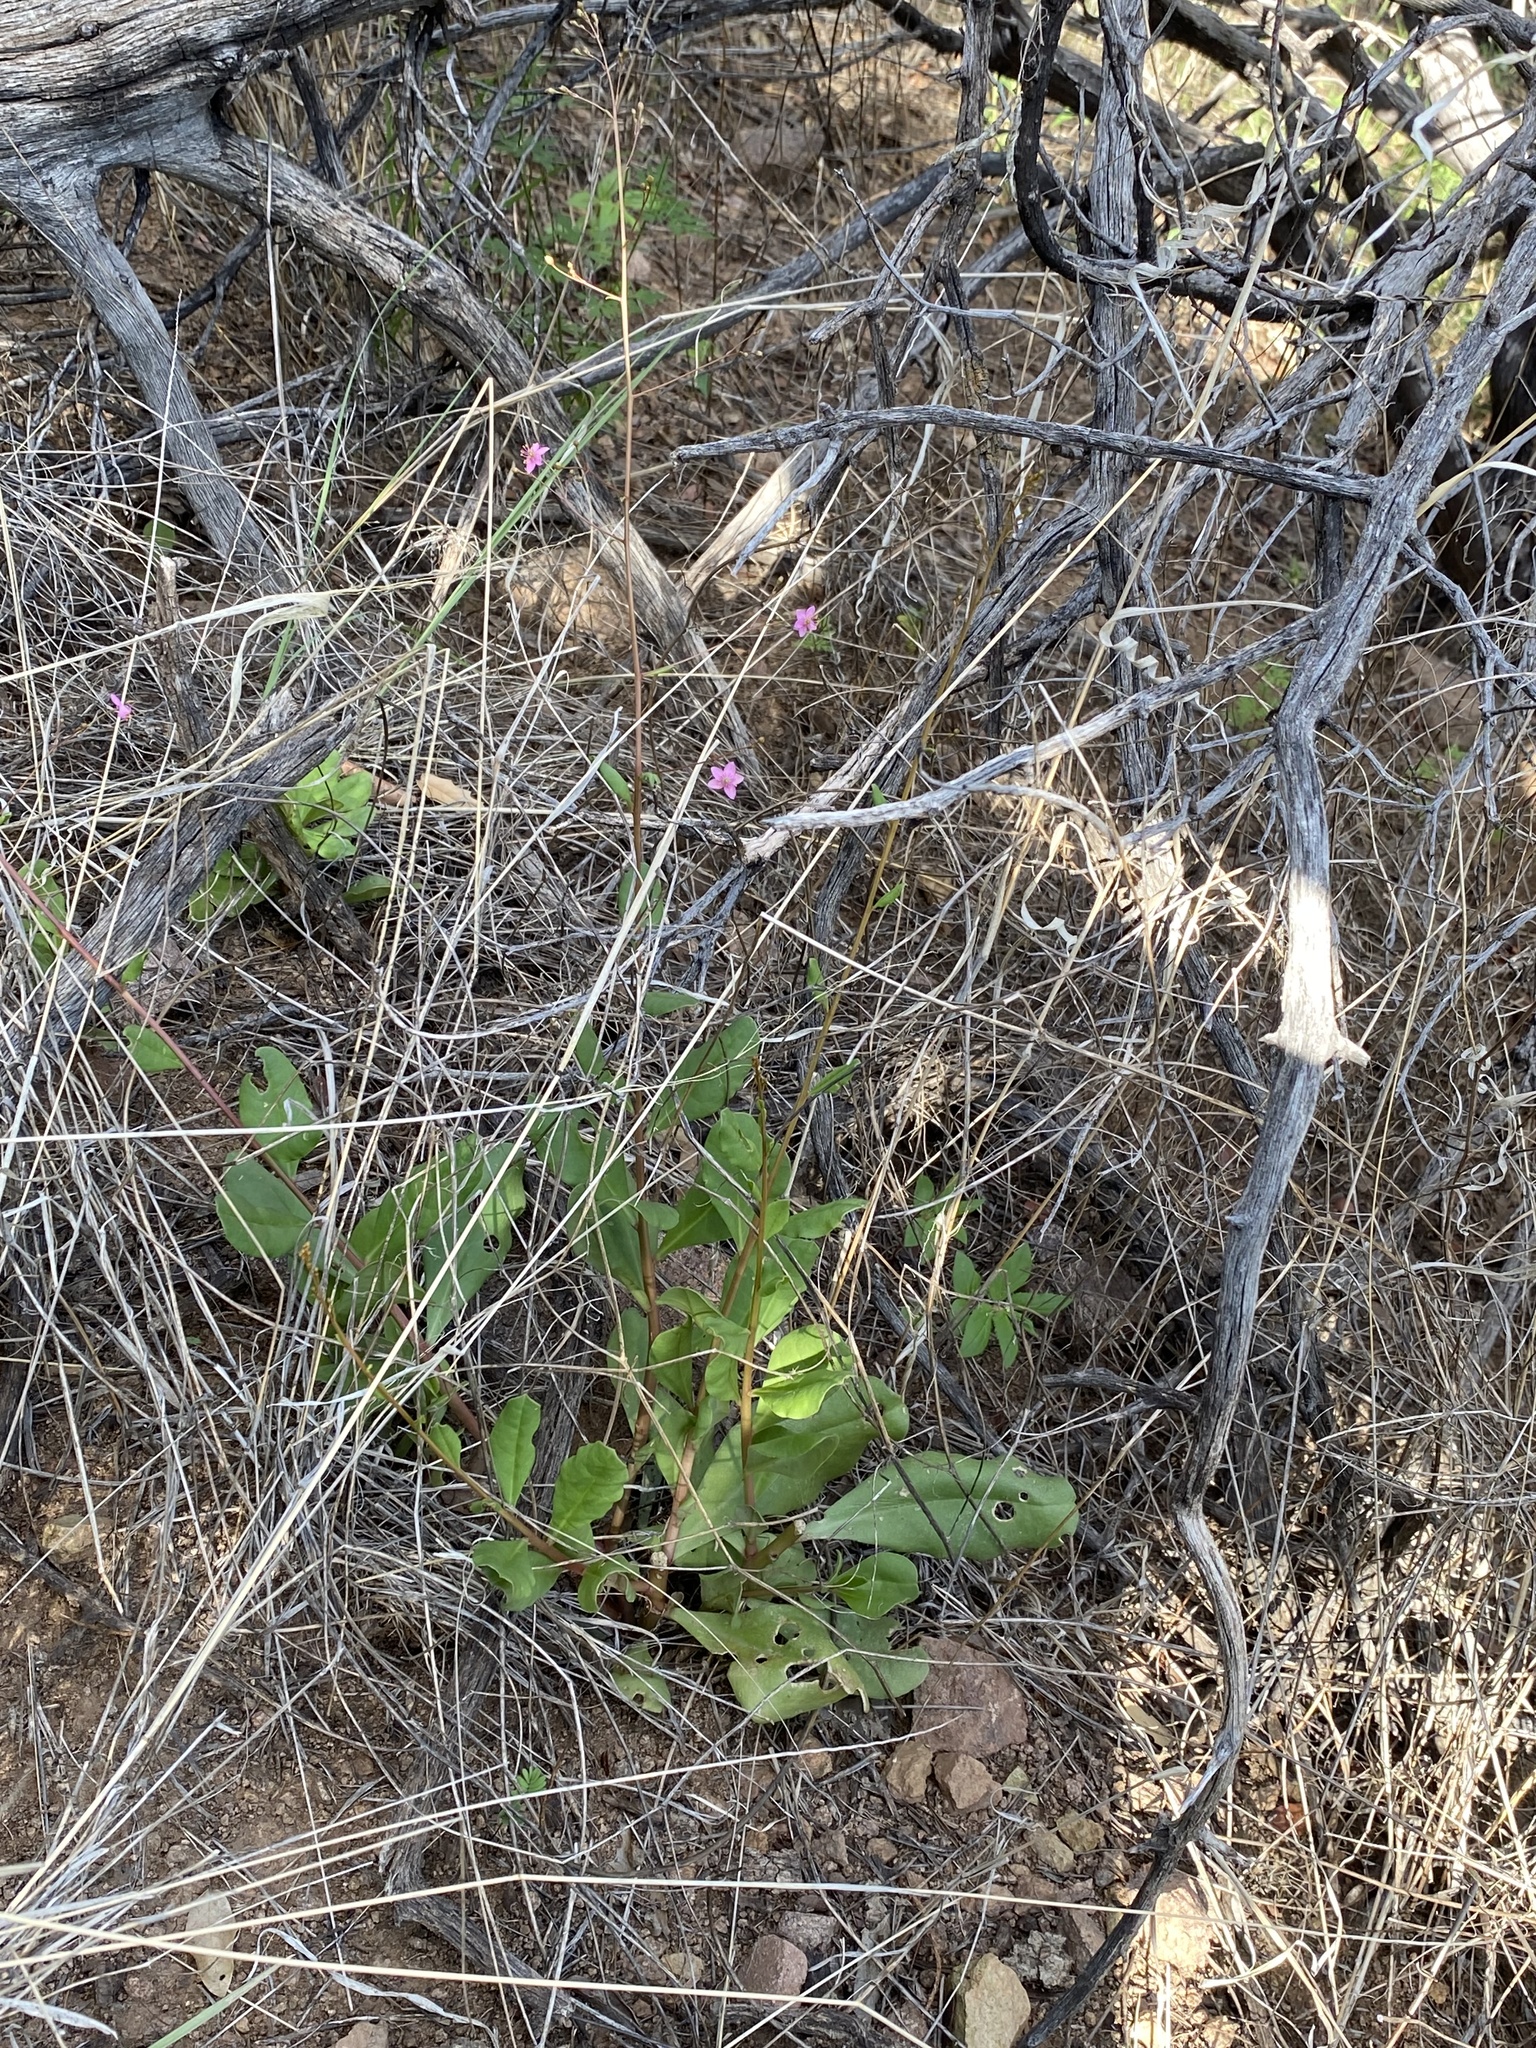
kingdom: Plantae
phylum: Tracheophyta
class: Magnoliopsida
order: Caryophyllales
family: Talinaceae
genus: Talinum
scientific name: Talinum sonorae
